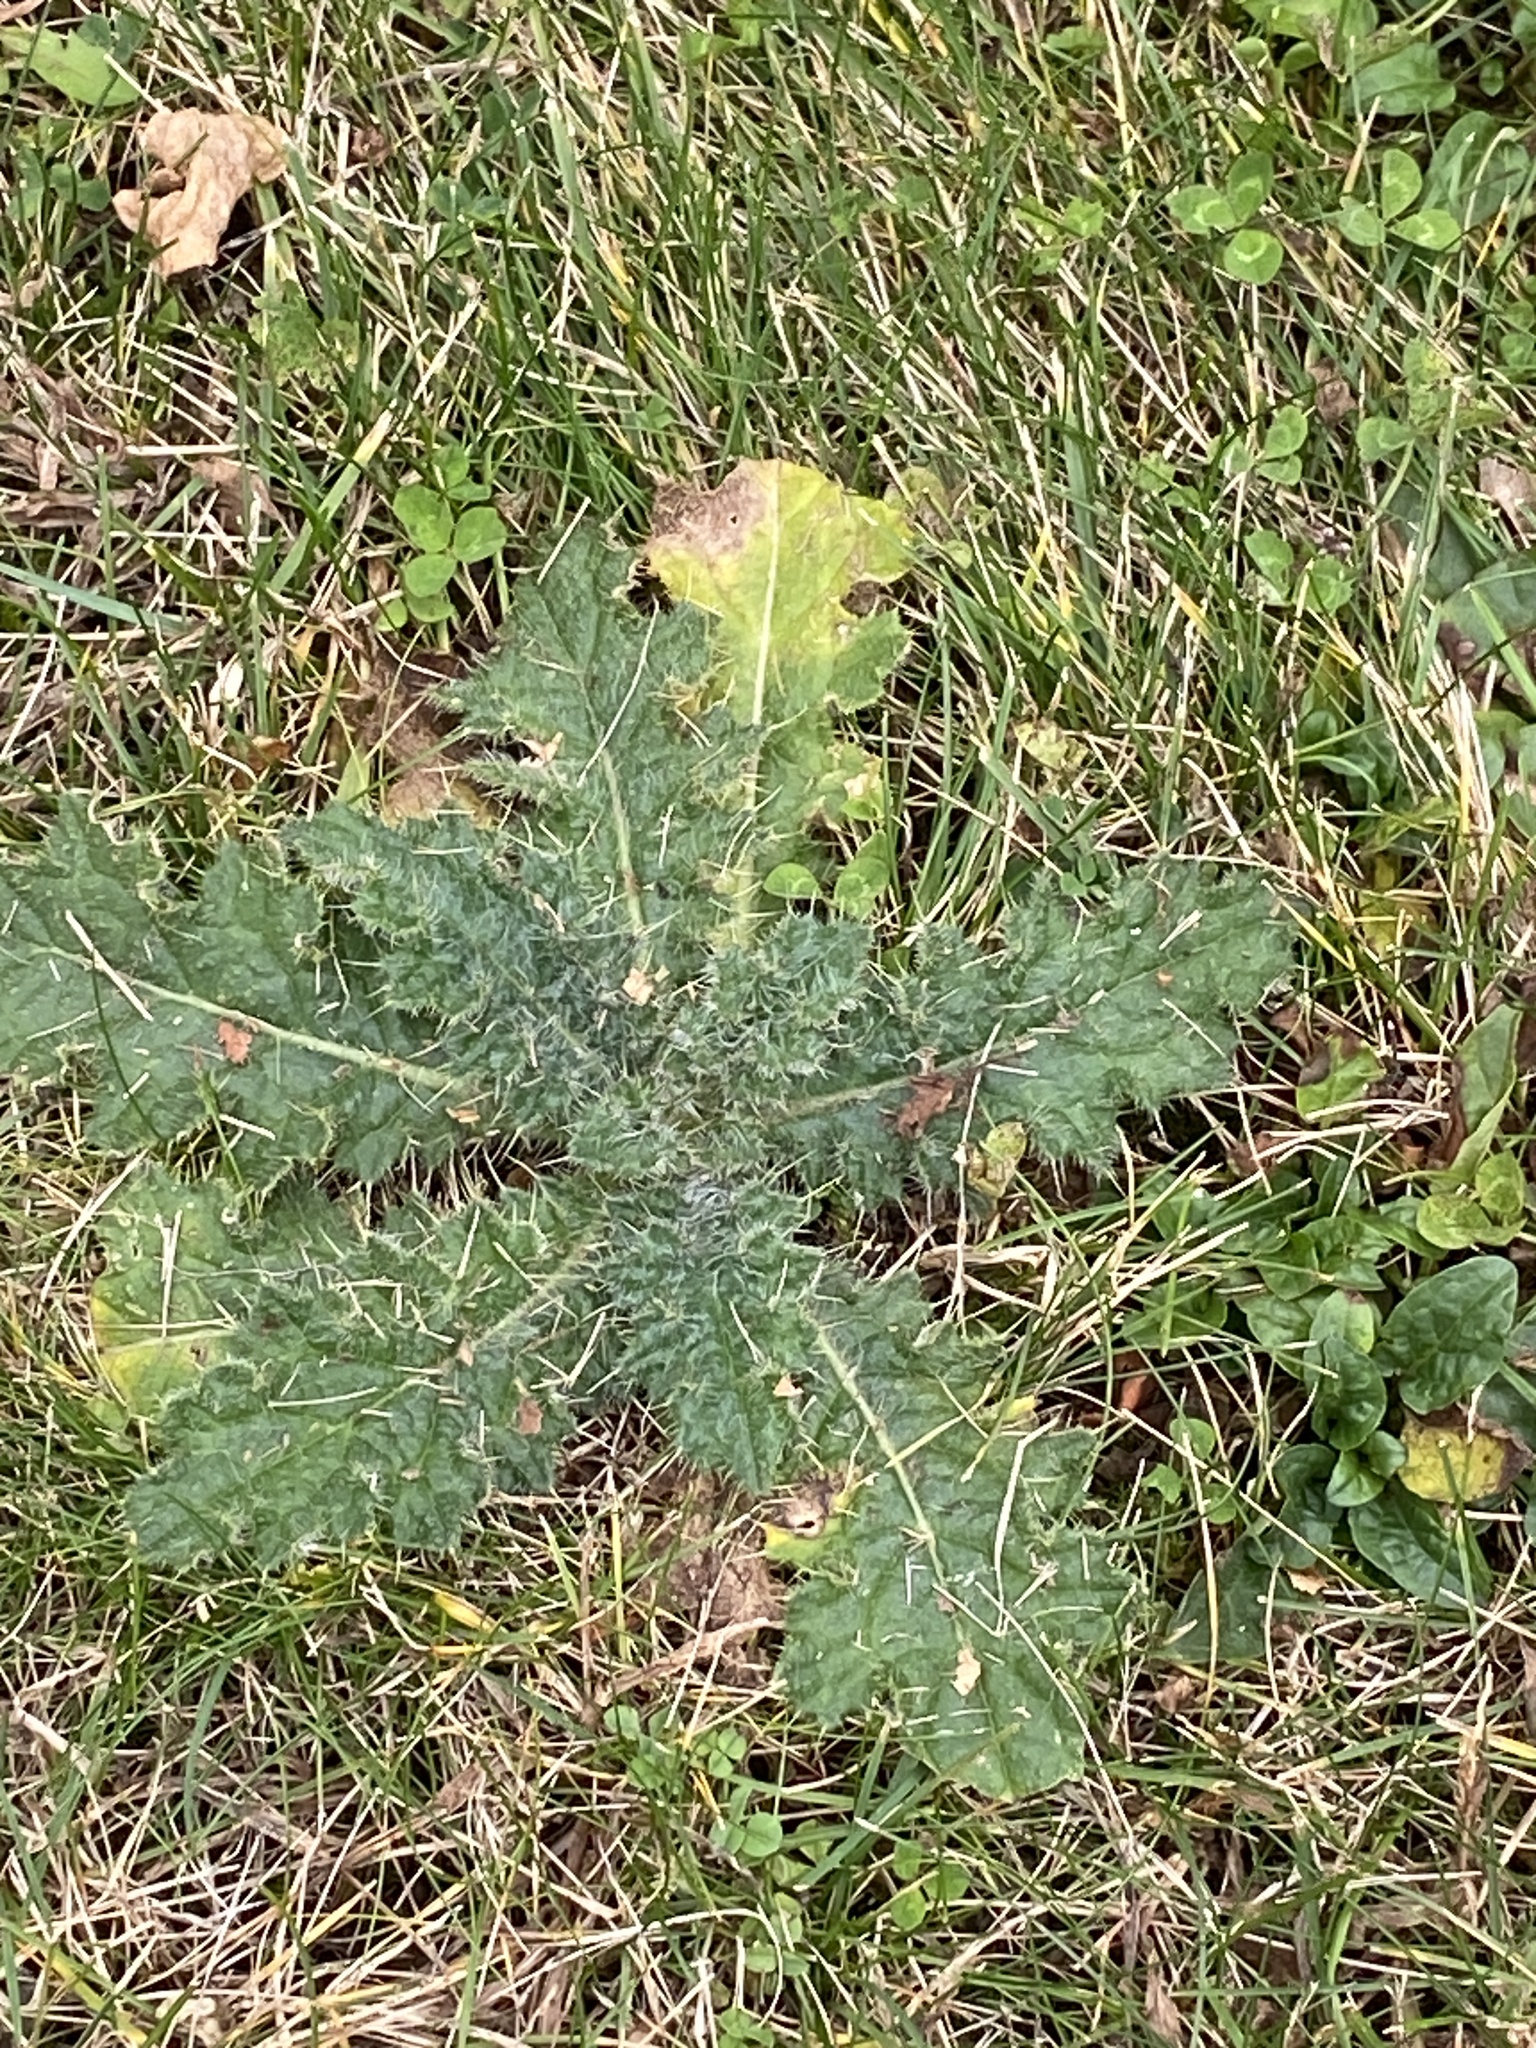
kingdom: Plantae
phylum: Tracheophyta
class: Magnoliopsida
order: Asterales
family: Asteraceae
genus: Cirsium
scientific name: Cirsium vulgare
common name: Bull thistle
